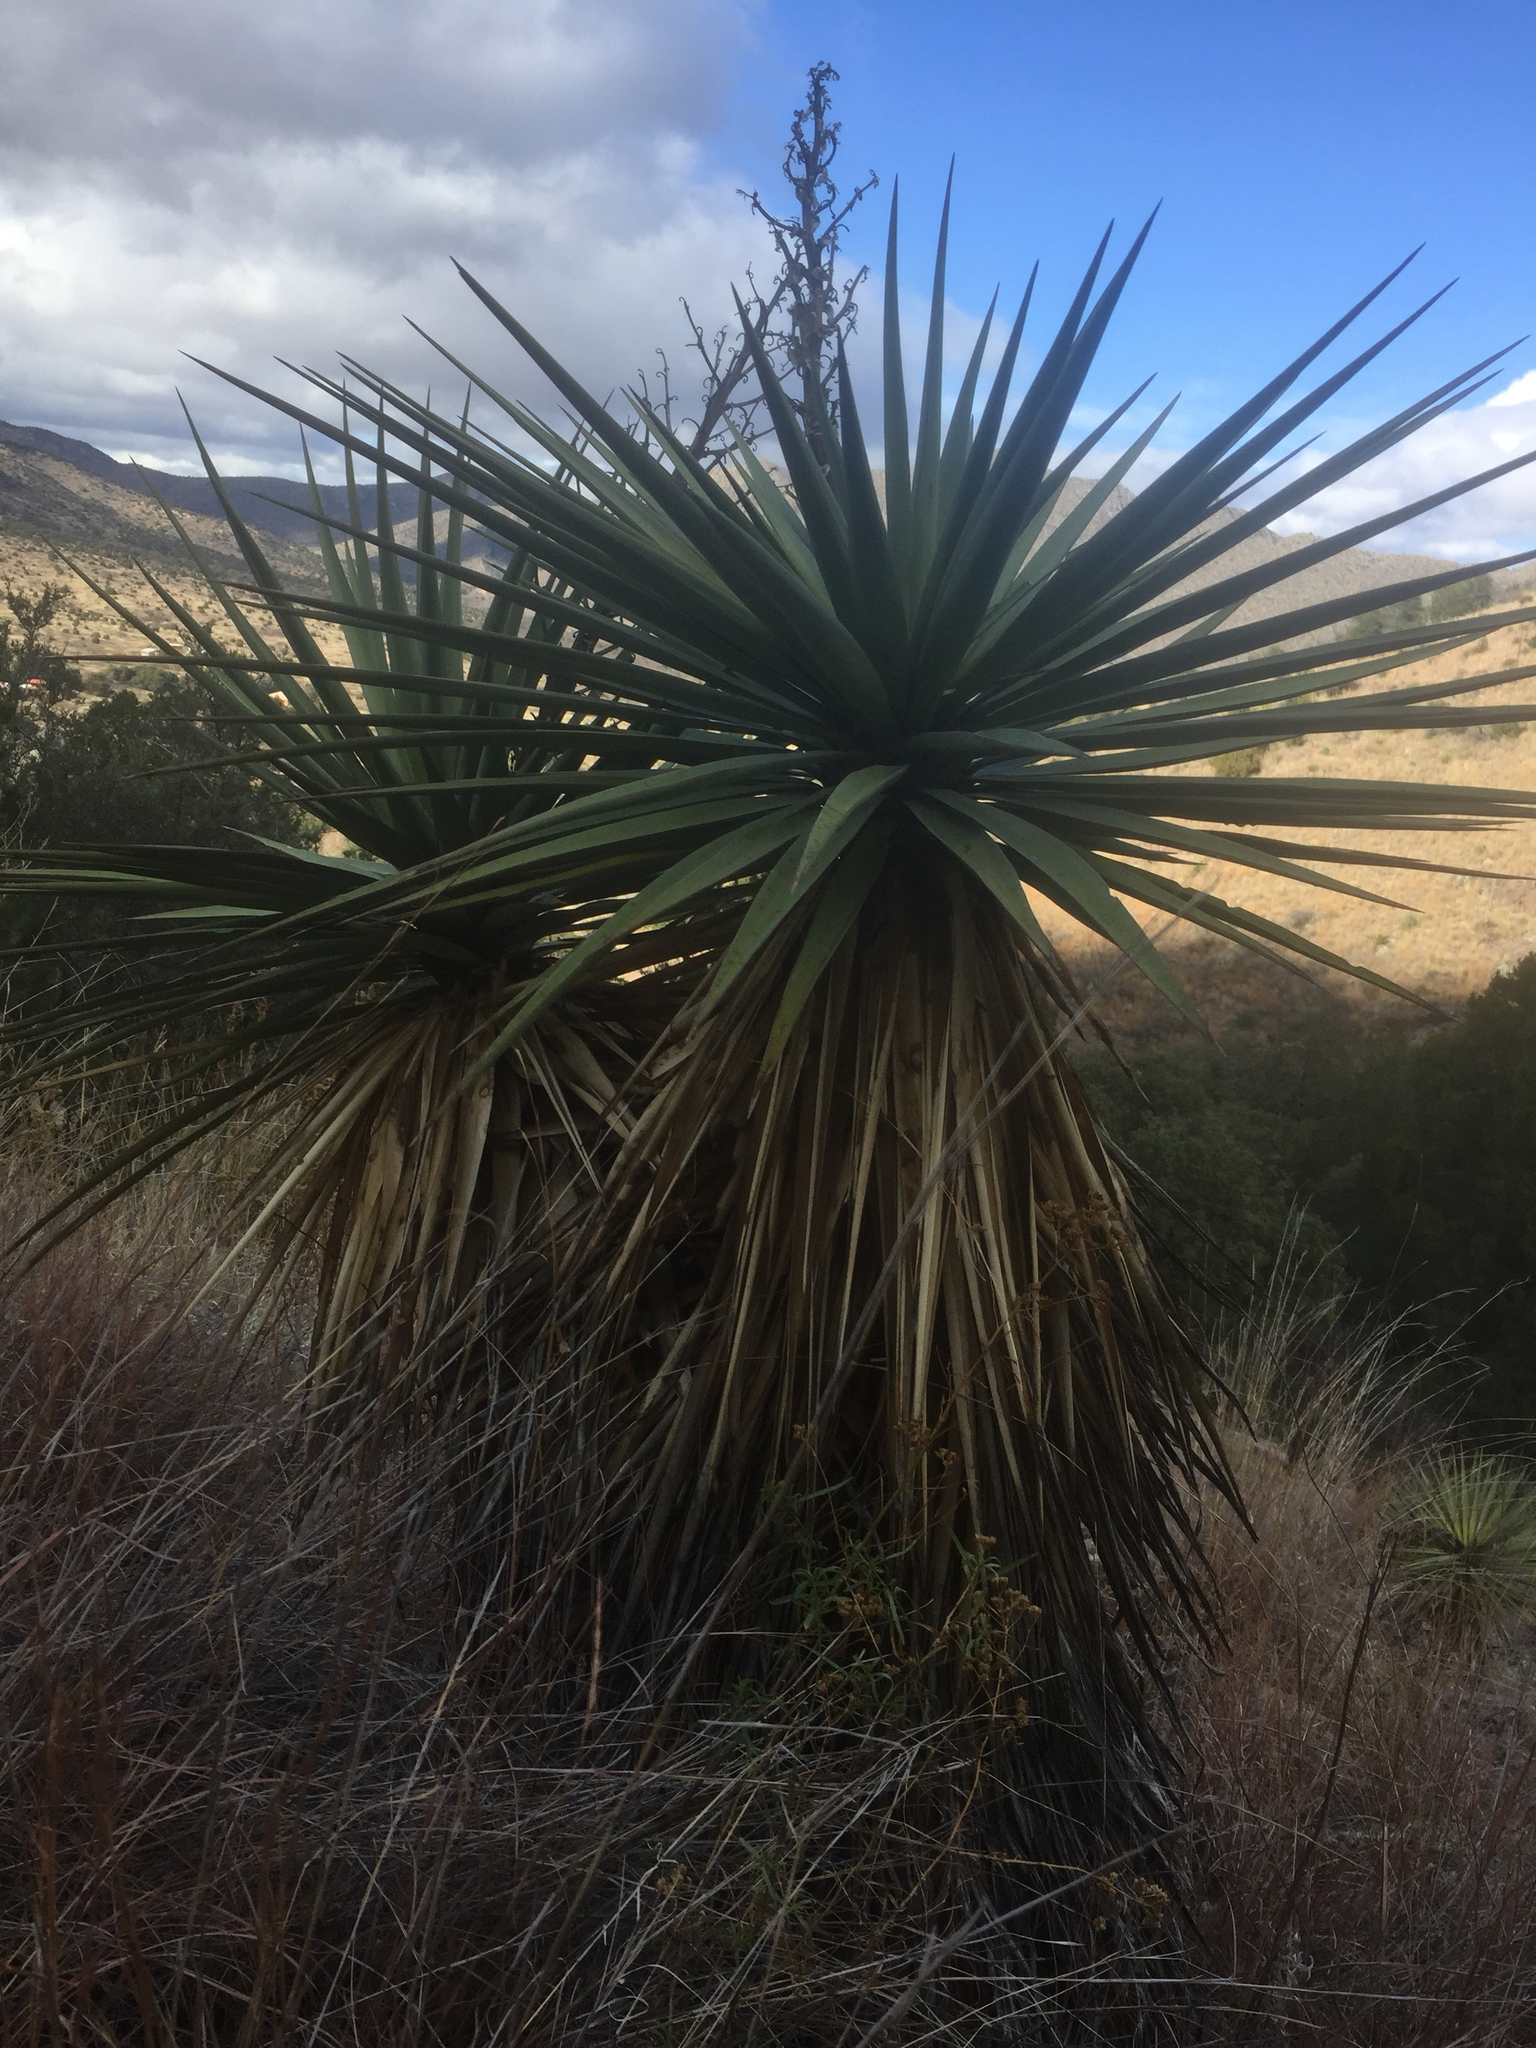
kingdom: Plantae
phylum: Tracheophyta
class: Liliopsida
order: Asparagales
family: Asparagaceae
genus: Yucca
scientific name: Yucca schottii
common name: Hoary yucca
